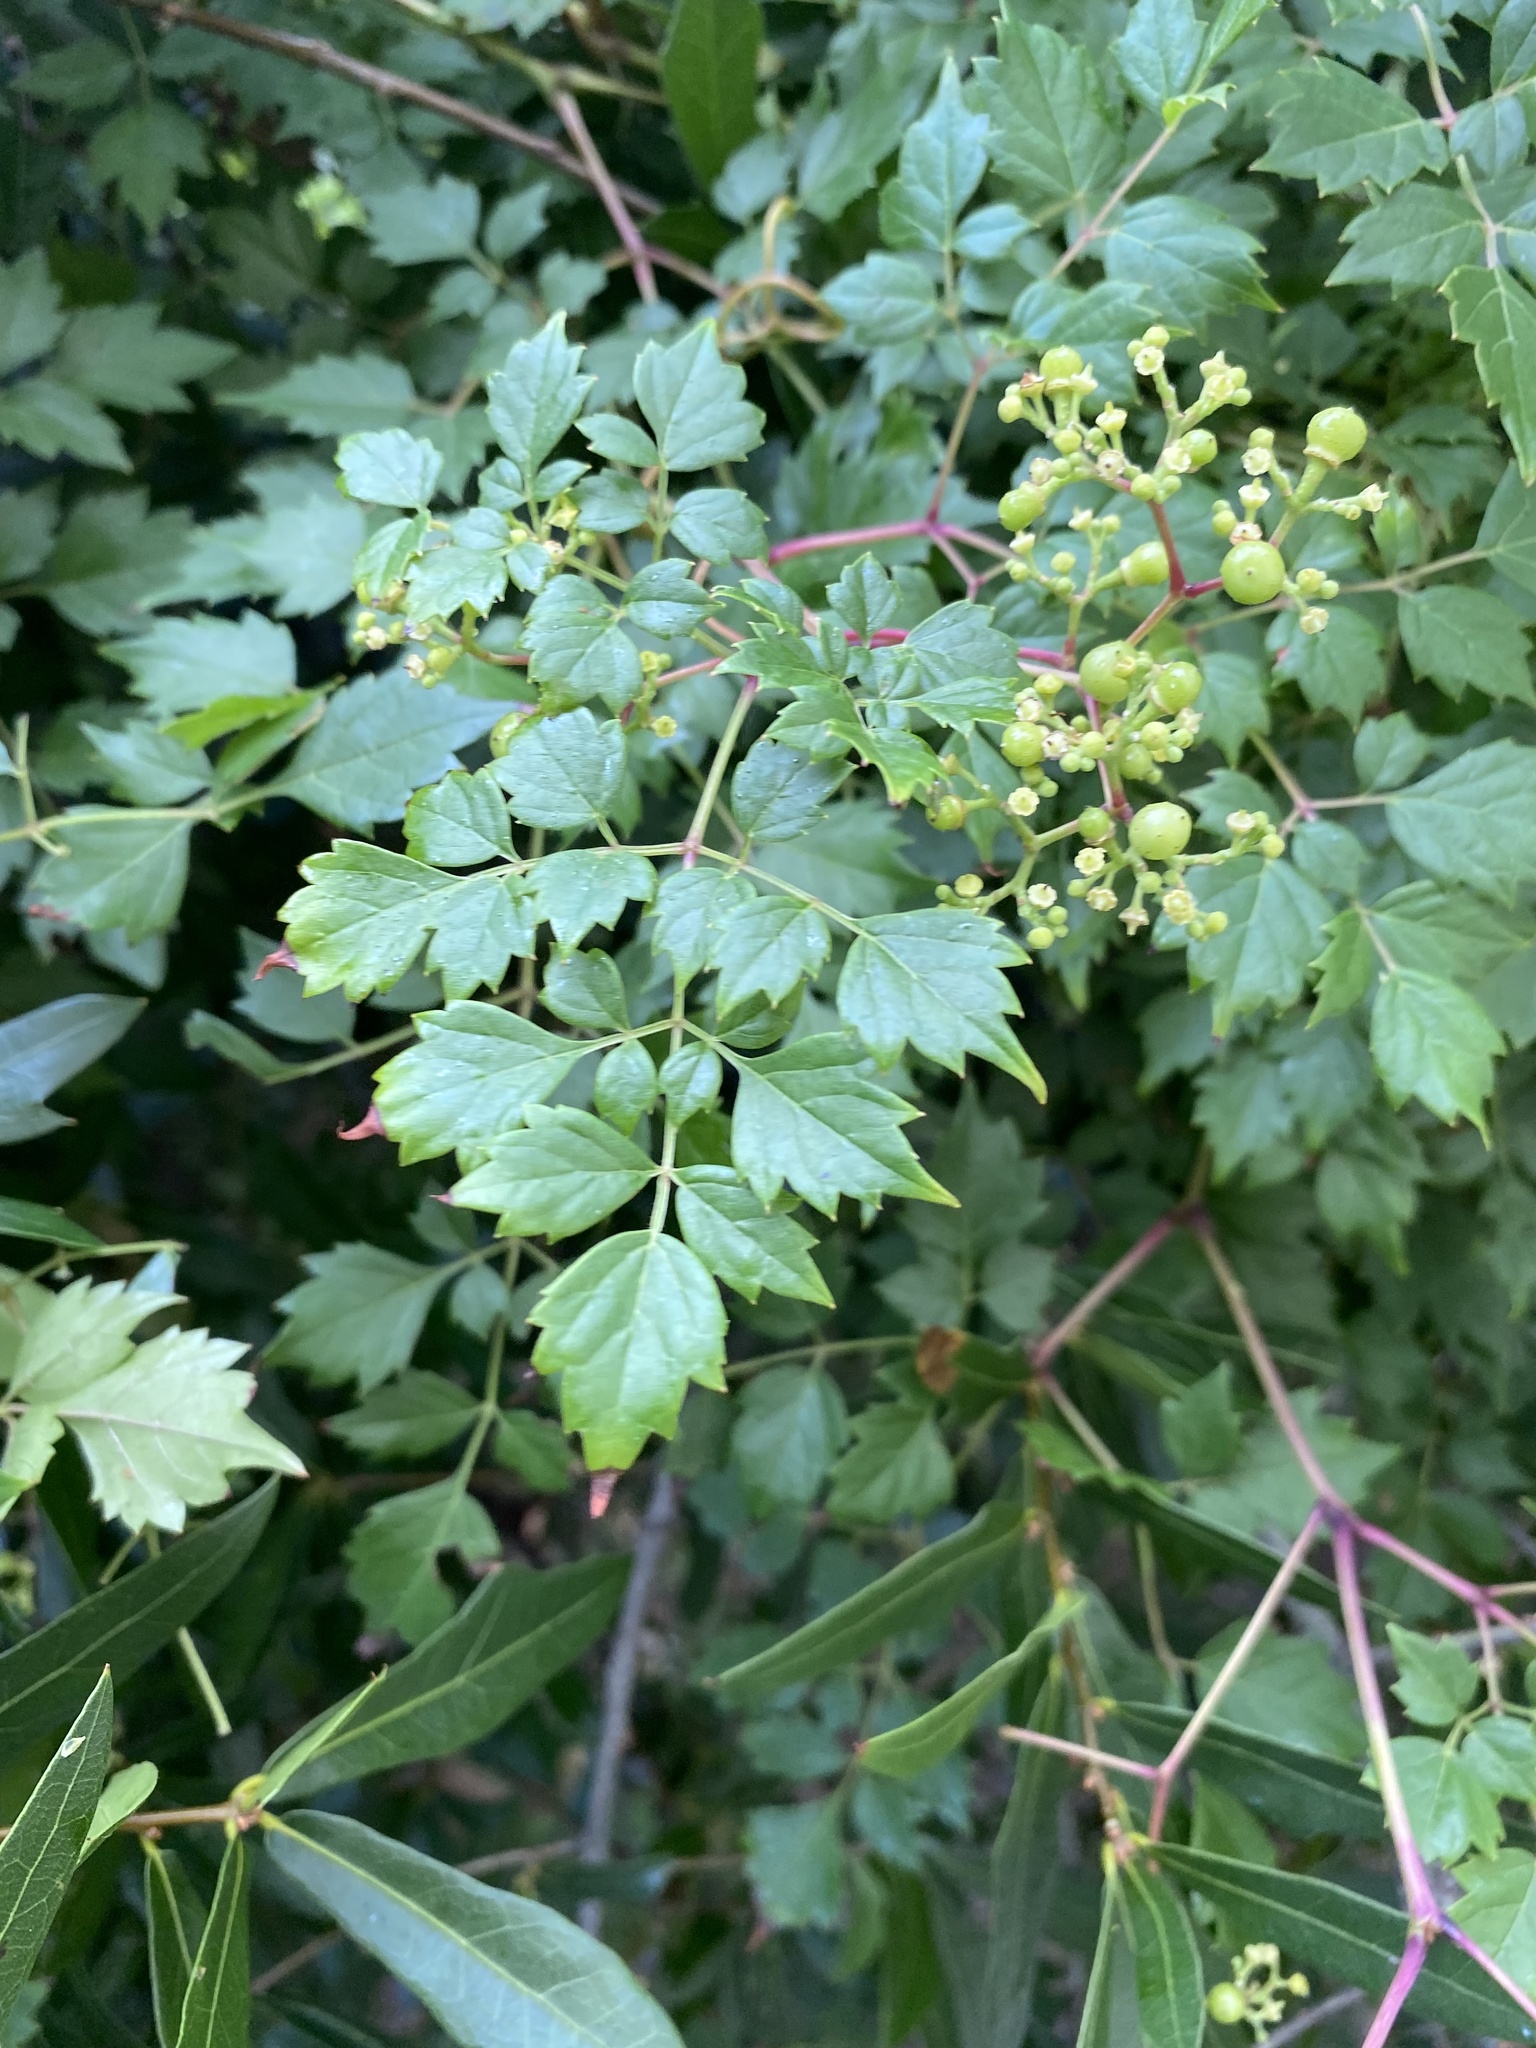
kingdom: Plantae
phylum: Tracheophyta
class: Magnoliopsida
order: Vitales
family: Vitaceae
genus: Nekemias
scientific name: Nekemias arborea
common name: Peppervine
